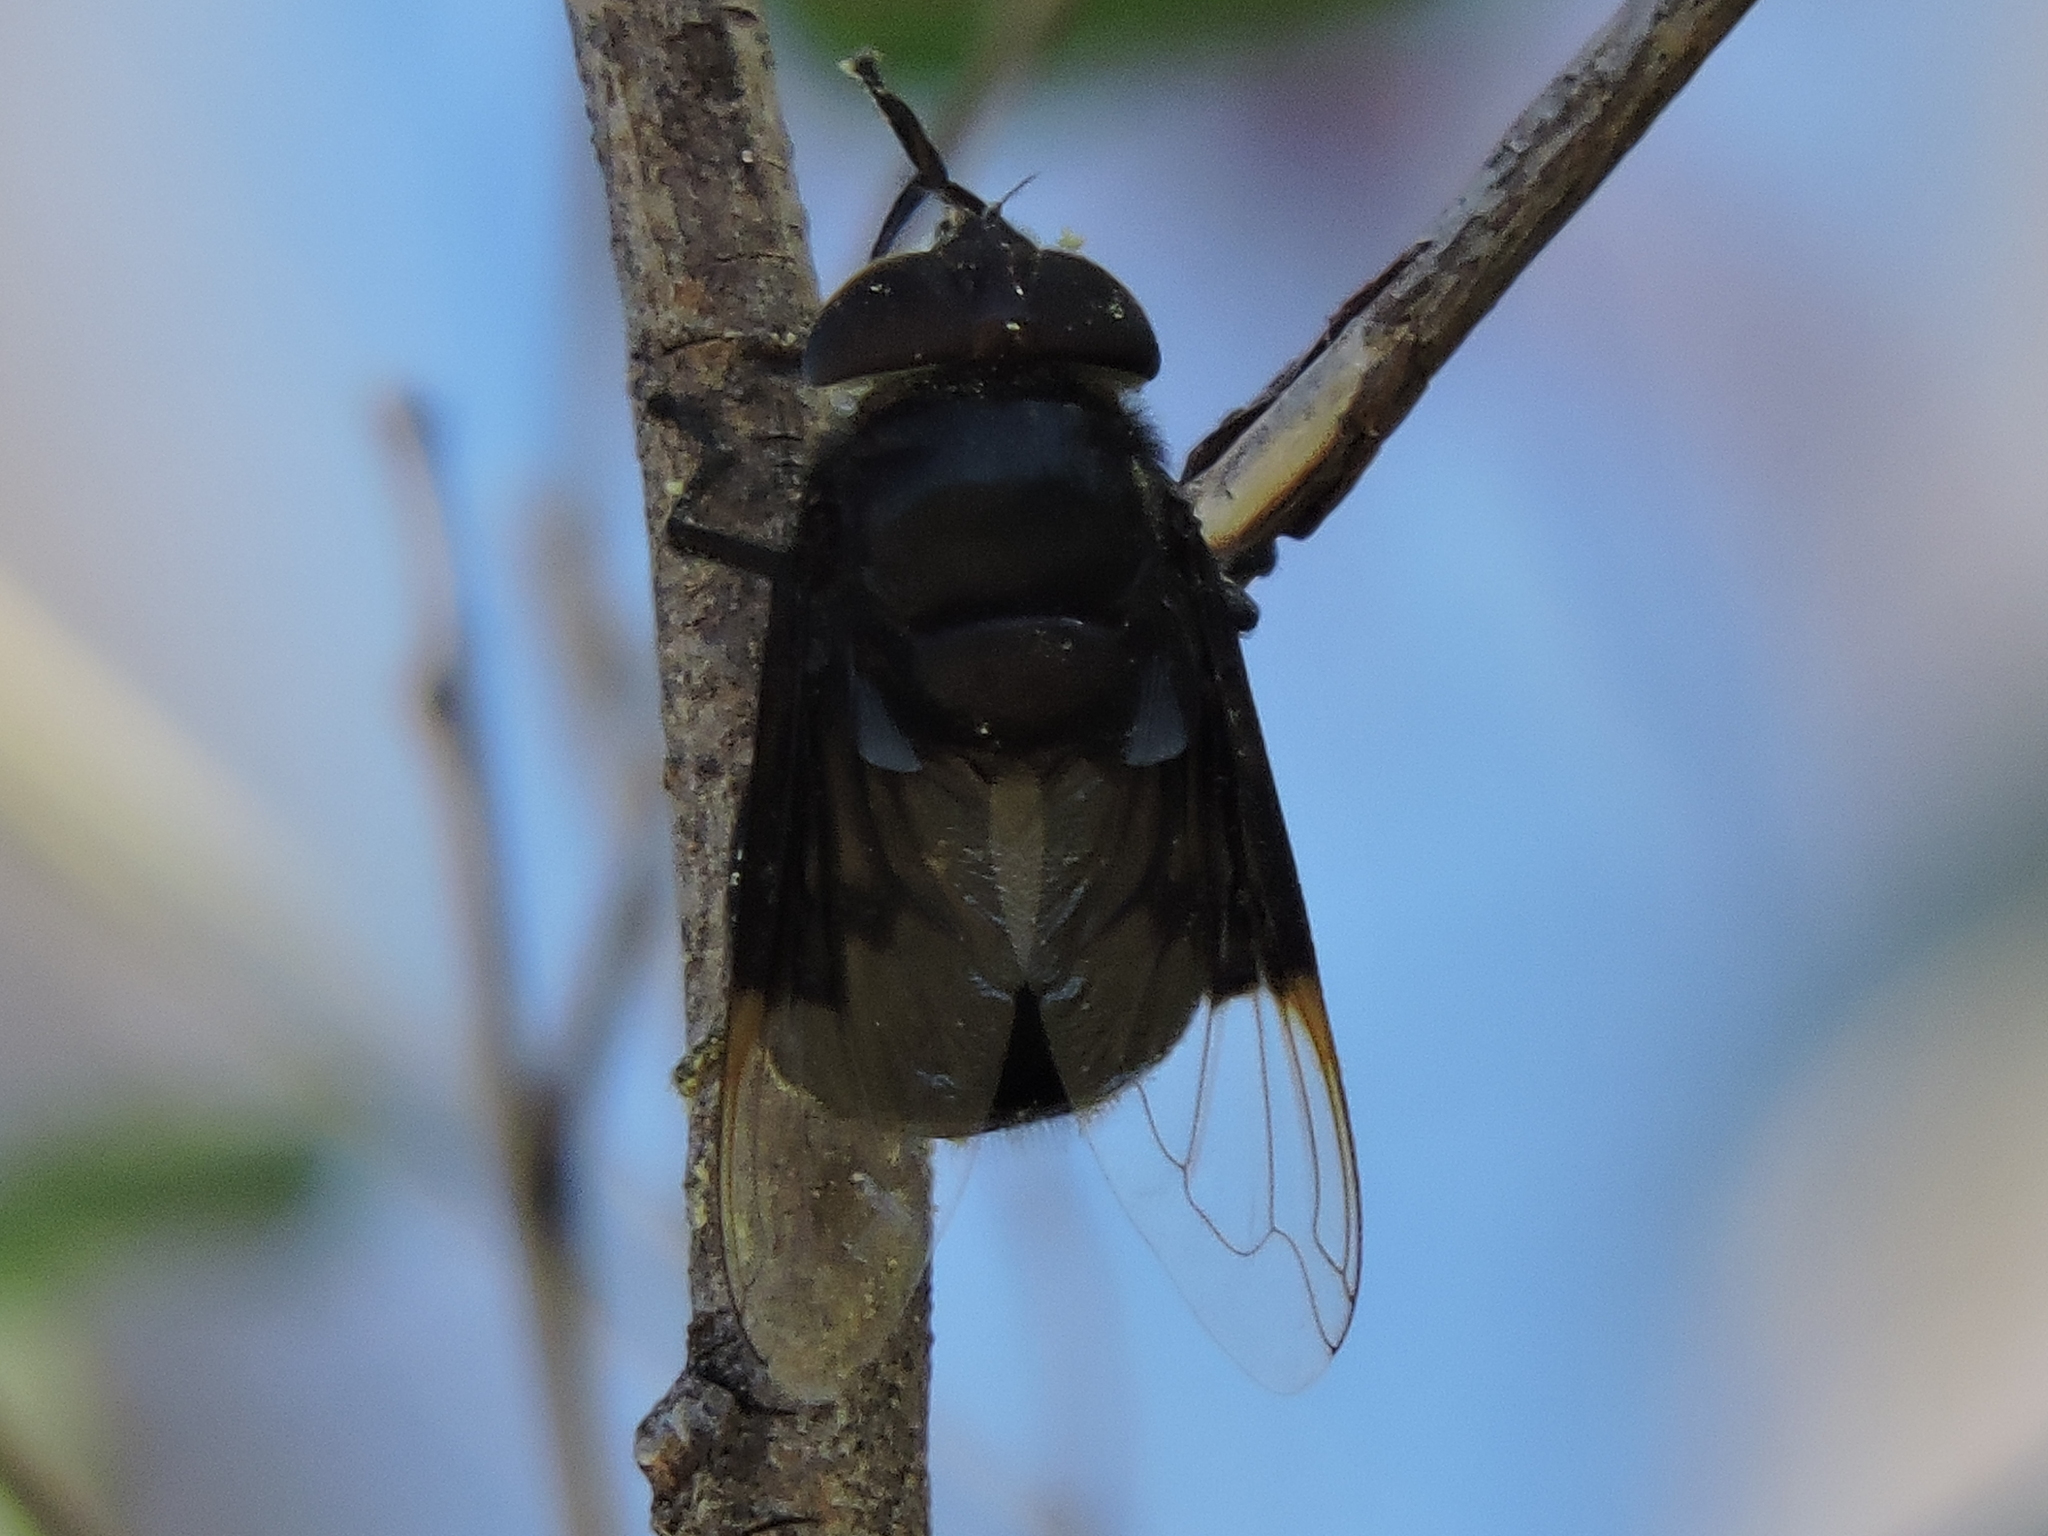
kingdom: Animalia
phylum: Arthropoda
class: Insecta
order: Diptera
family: Syrphidae
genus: Copestylum
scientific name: Copestylum mexicanum
